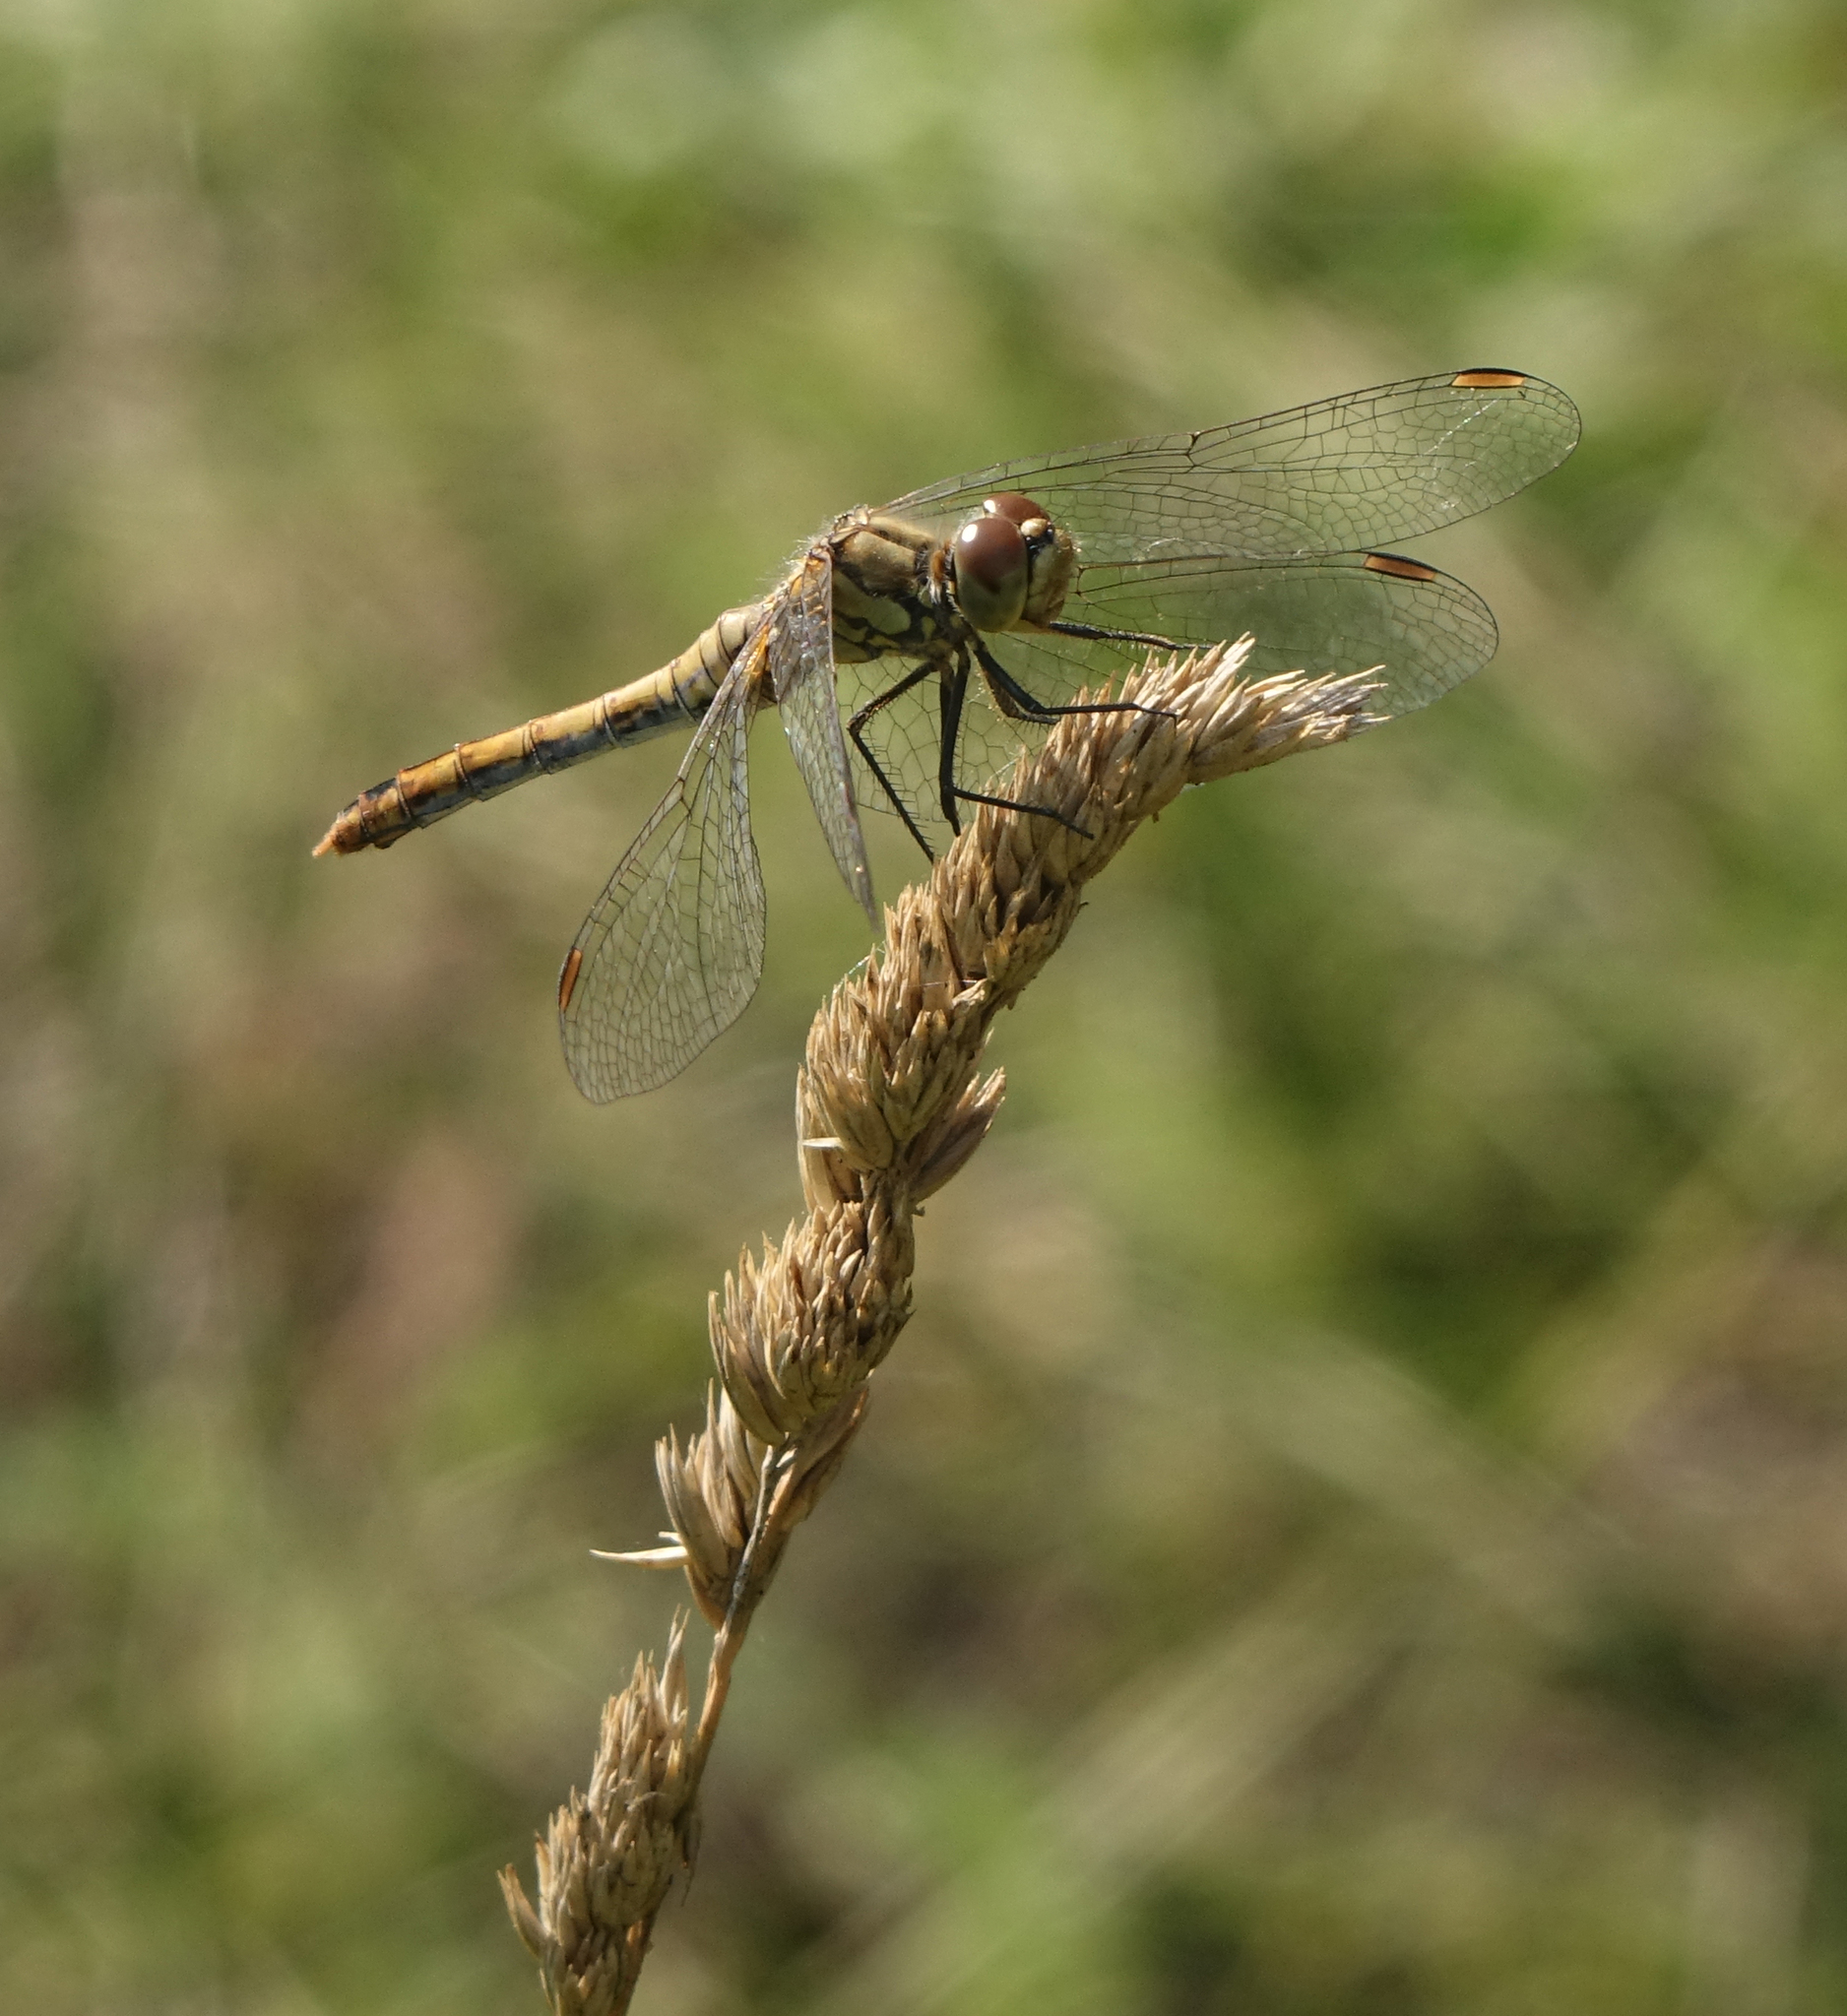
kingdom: Plantae
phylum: Tracheophyta
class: Liliopsida
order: Poales
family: Poaceae
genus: Dactylis
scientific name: Dactylis glomerata
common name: Orchardgrass
